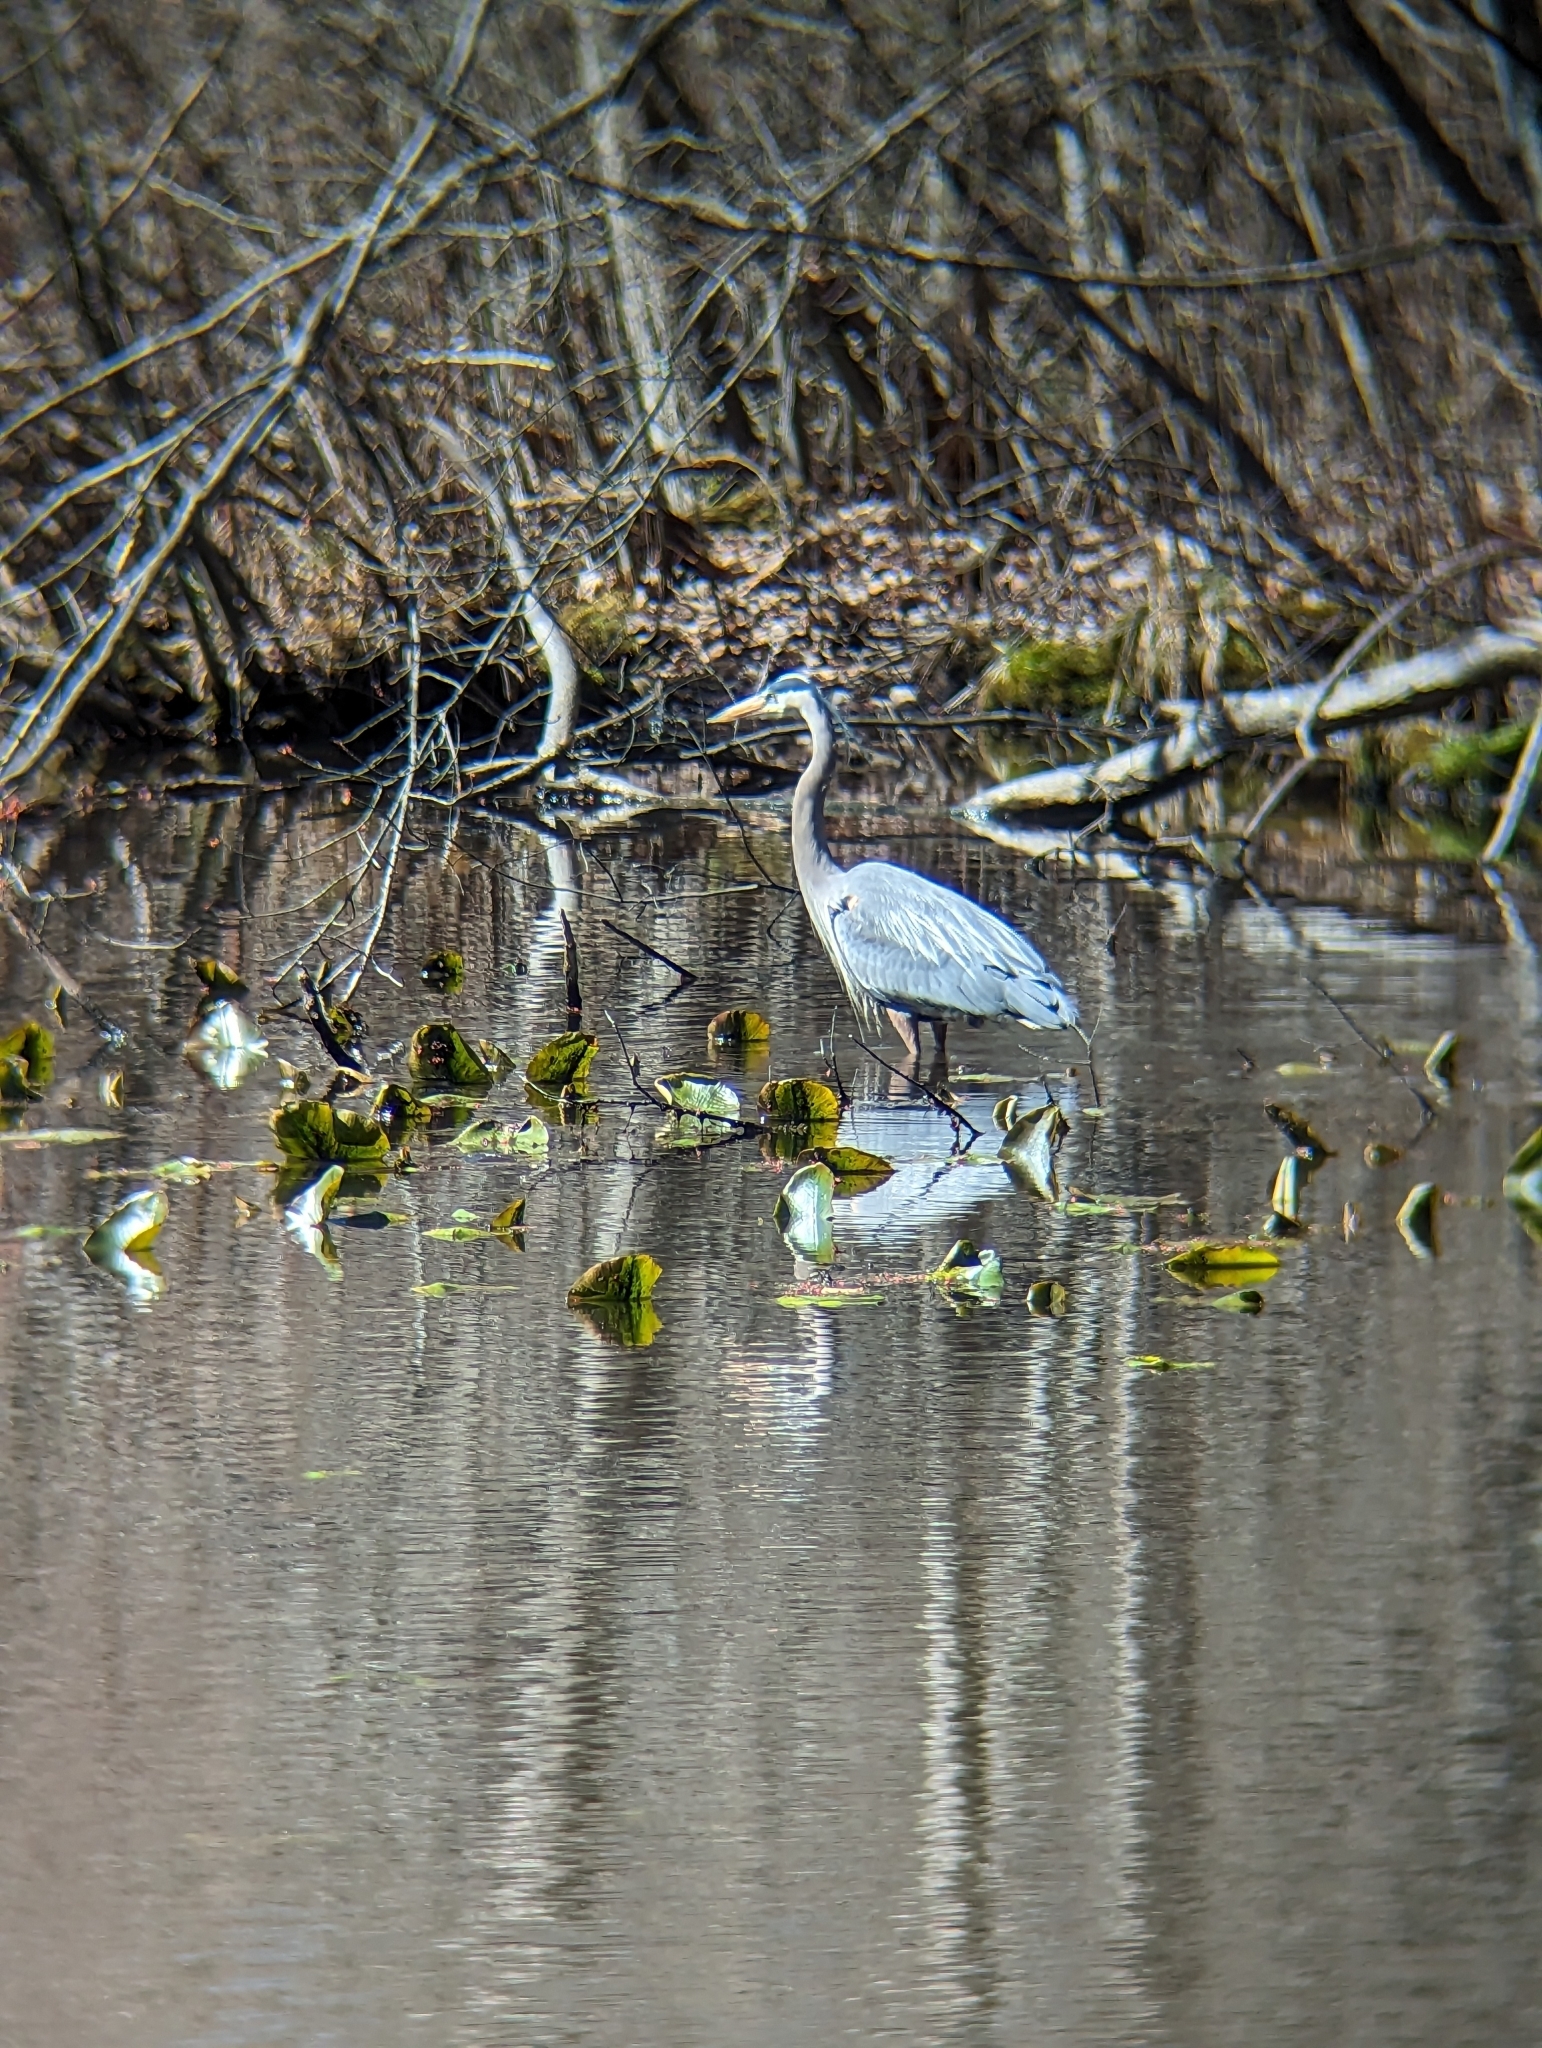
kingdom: Animalia
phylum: Chordata
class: Aves
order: Pelecaniformes
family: Ardeidae
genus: Ardea
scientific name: Ardea herodias
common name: Great blue heron
